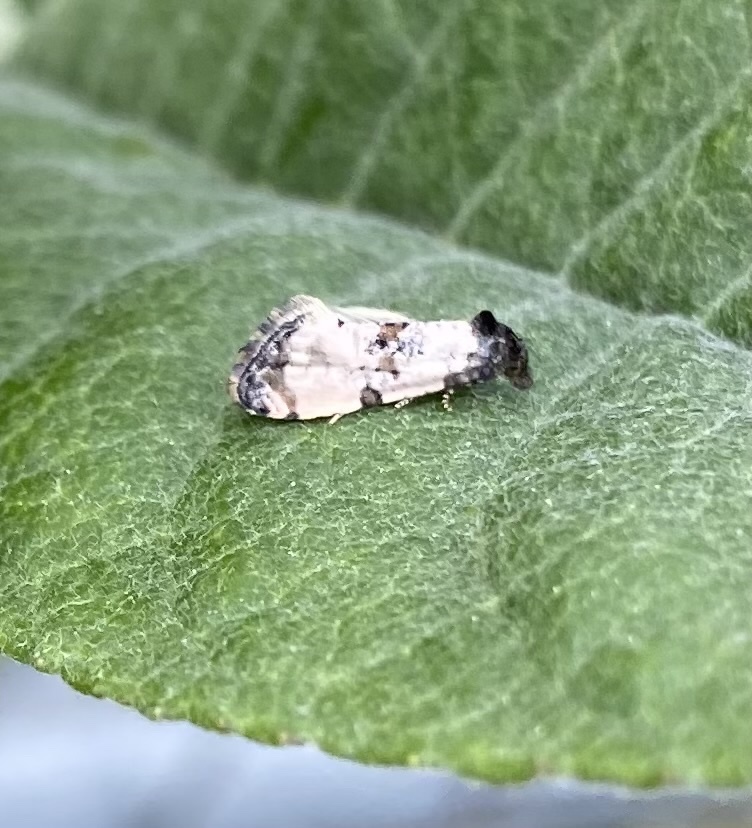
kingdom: Animalia
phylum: Arthropoda
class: Insecta
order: Lepidoptera
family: Tortricidae
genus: Cochylis
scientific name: Cochylis atricapitana
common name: Tortricid moth
